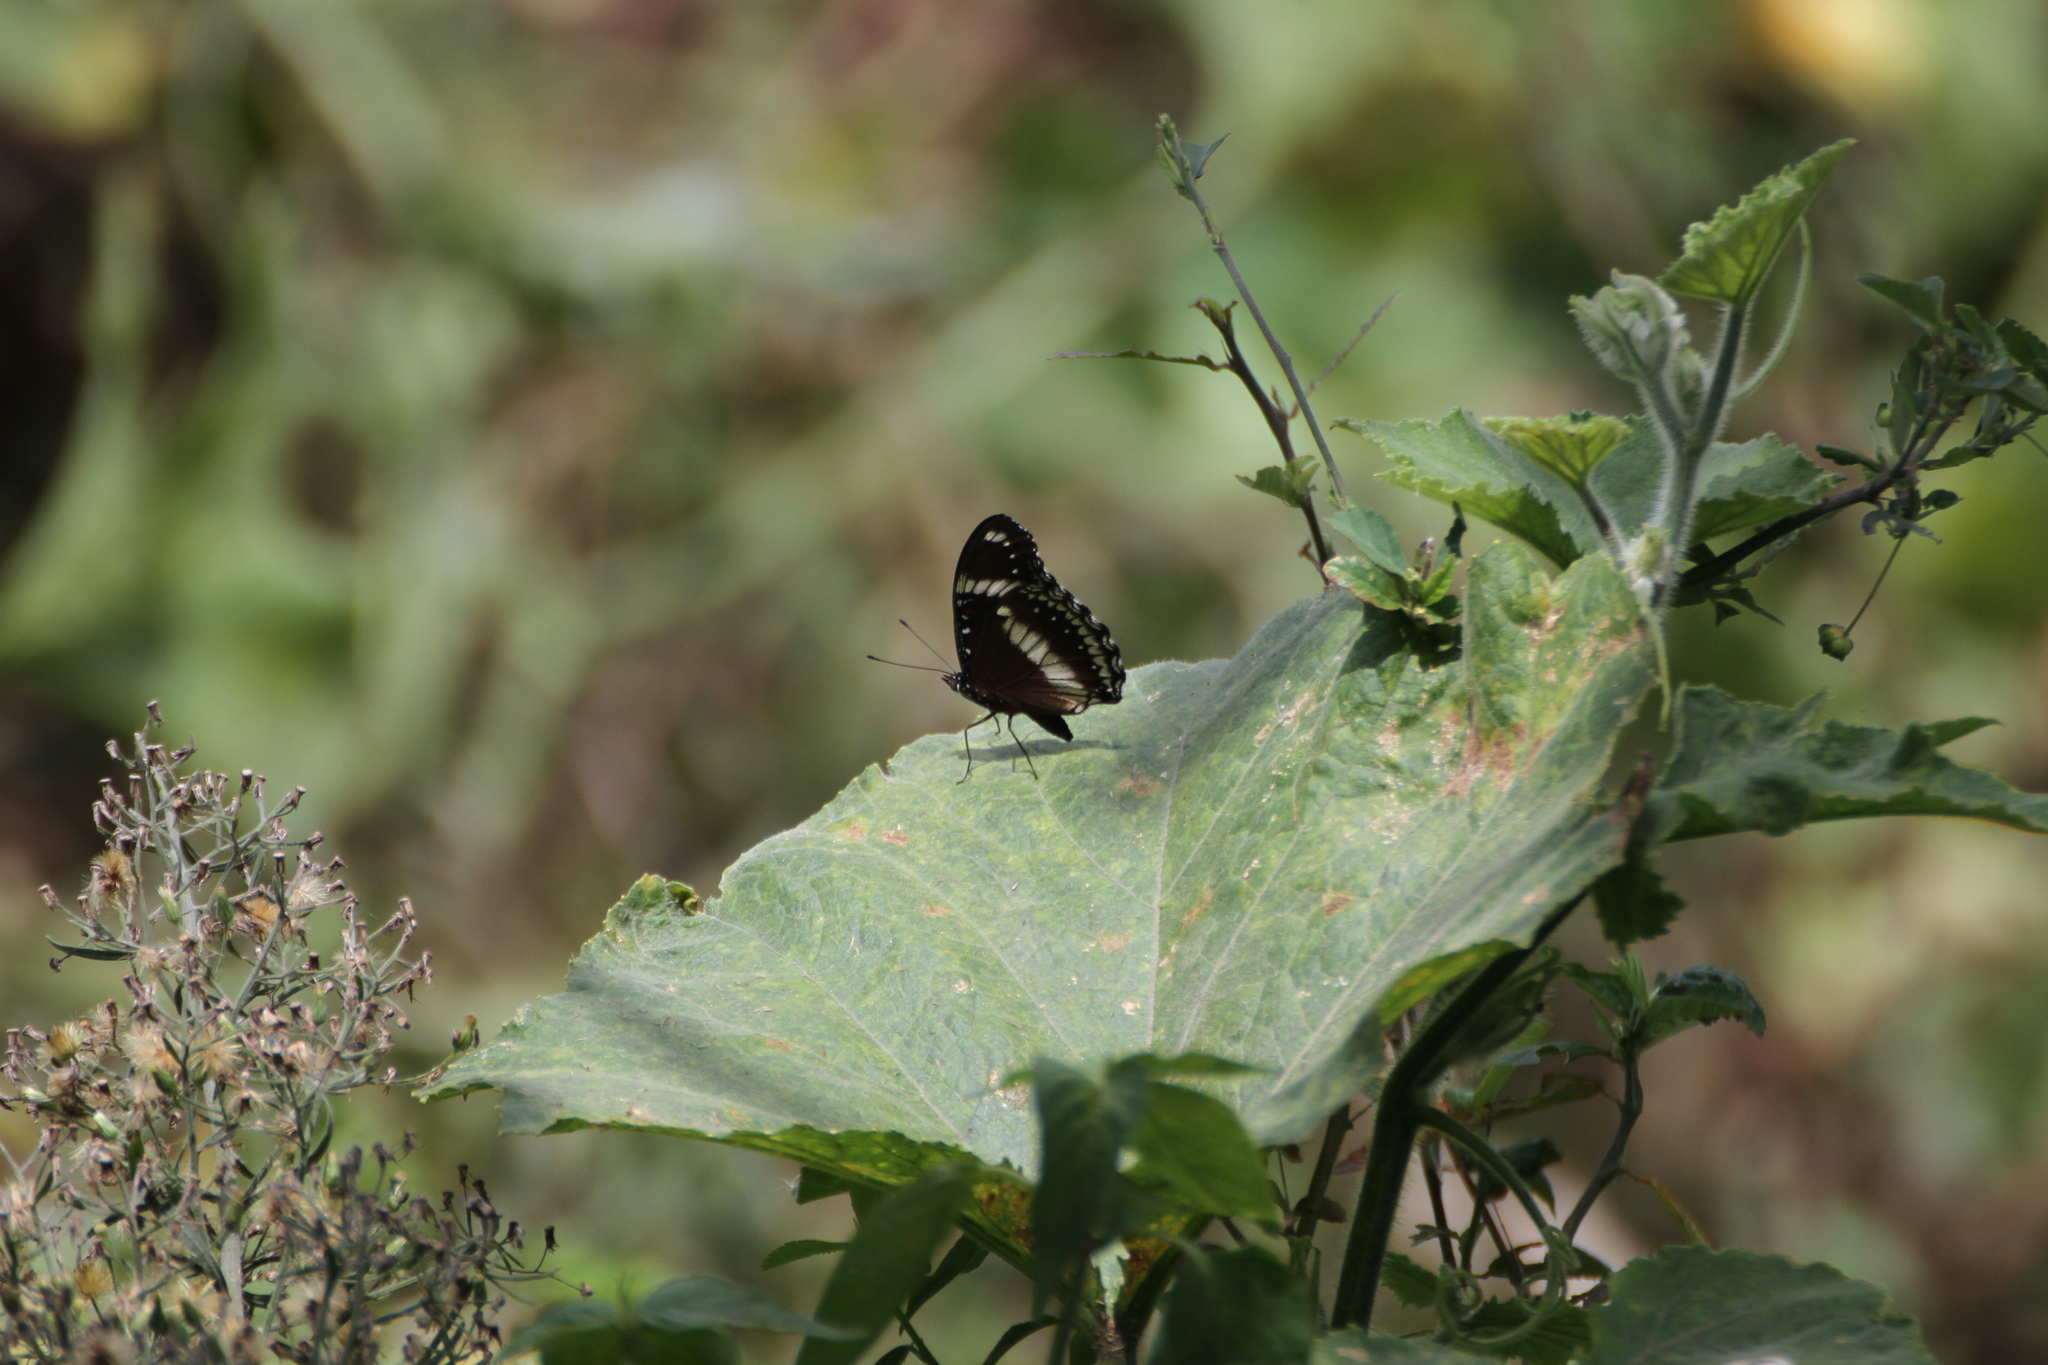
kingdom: Animalia
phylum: Arthropoda
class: Insecta
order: Lepidoptera
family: Nymphalidae
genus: Hypolimnas
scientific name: Hypolimnas bolina
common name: Great eggfly
